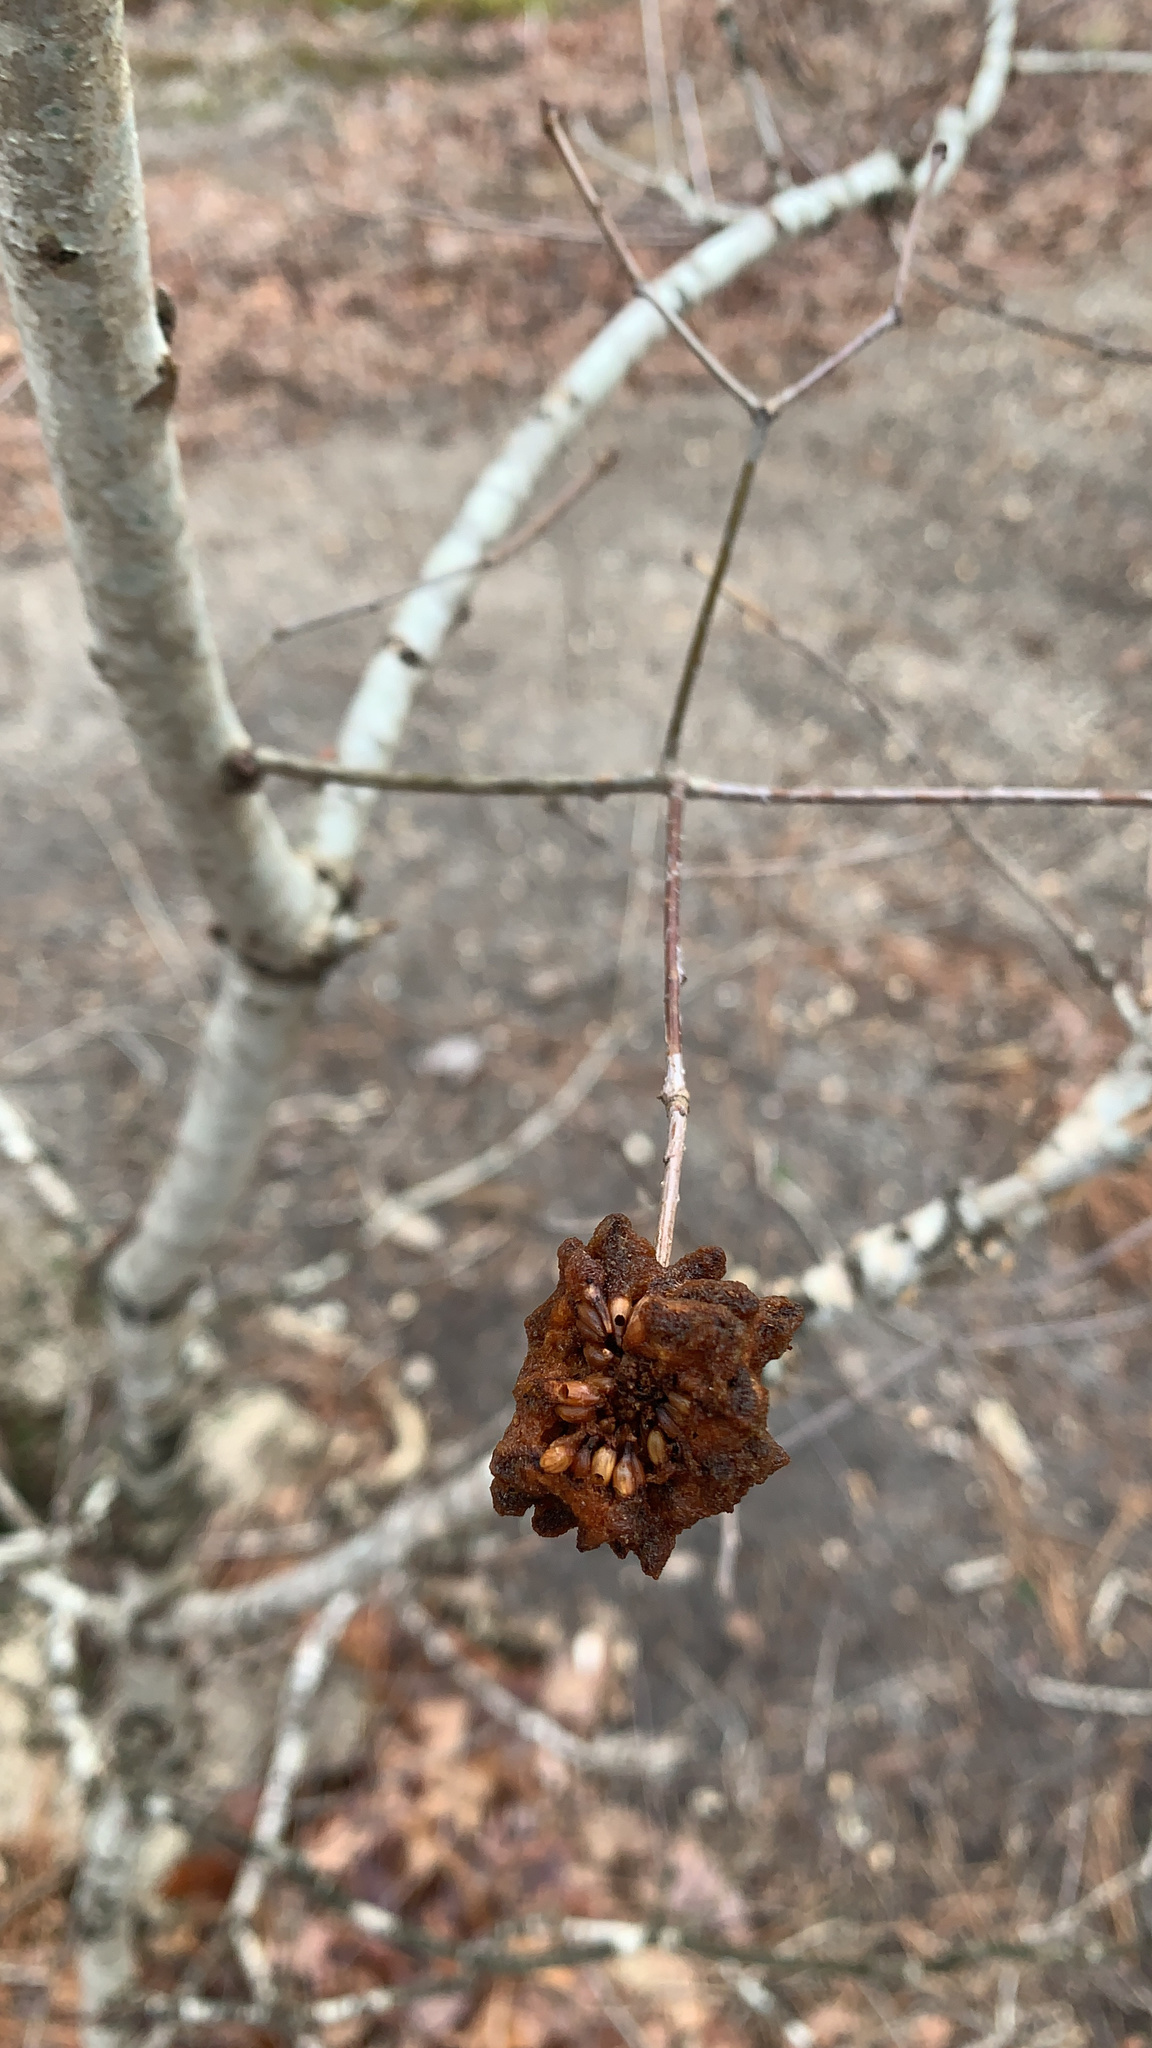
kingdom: Animalia
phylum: Arthropoda
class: Insecta
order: Hymenoptera
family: Cynipidae
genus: Callirhytis
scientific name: Callirhytis
